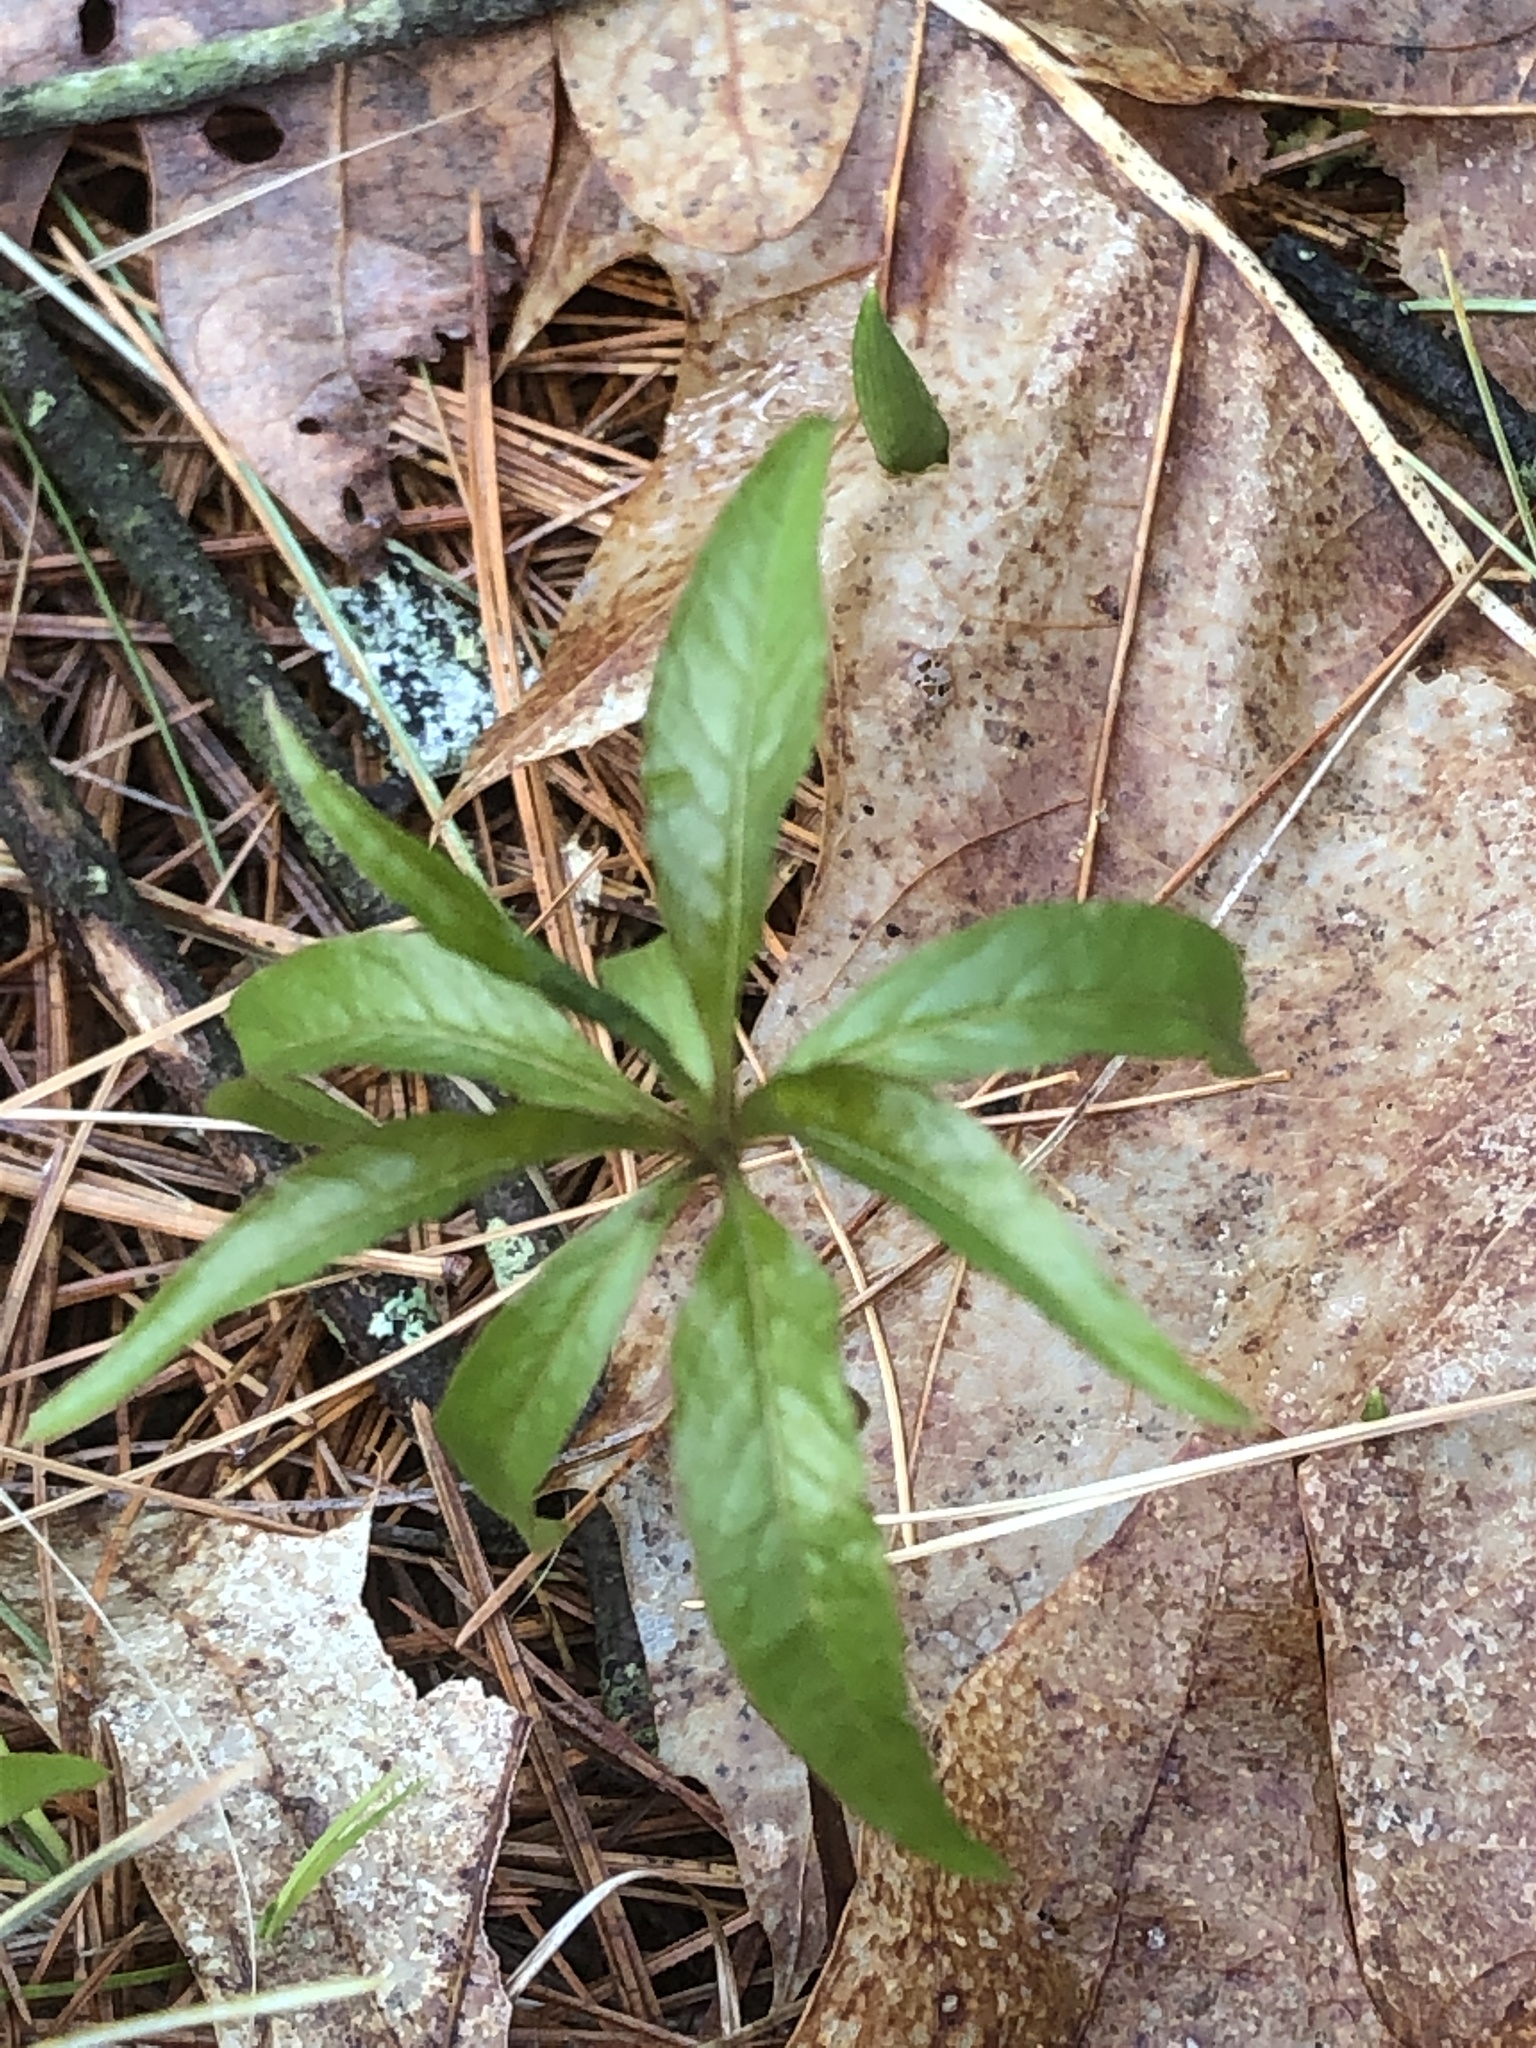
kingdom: Plantae
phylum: Tracheophyta
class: Magnoliopsida
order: Ericales
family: Primulaceae
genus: Lysimachia
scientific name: Lysimachia borealis
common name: American starflower
